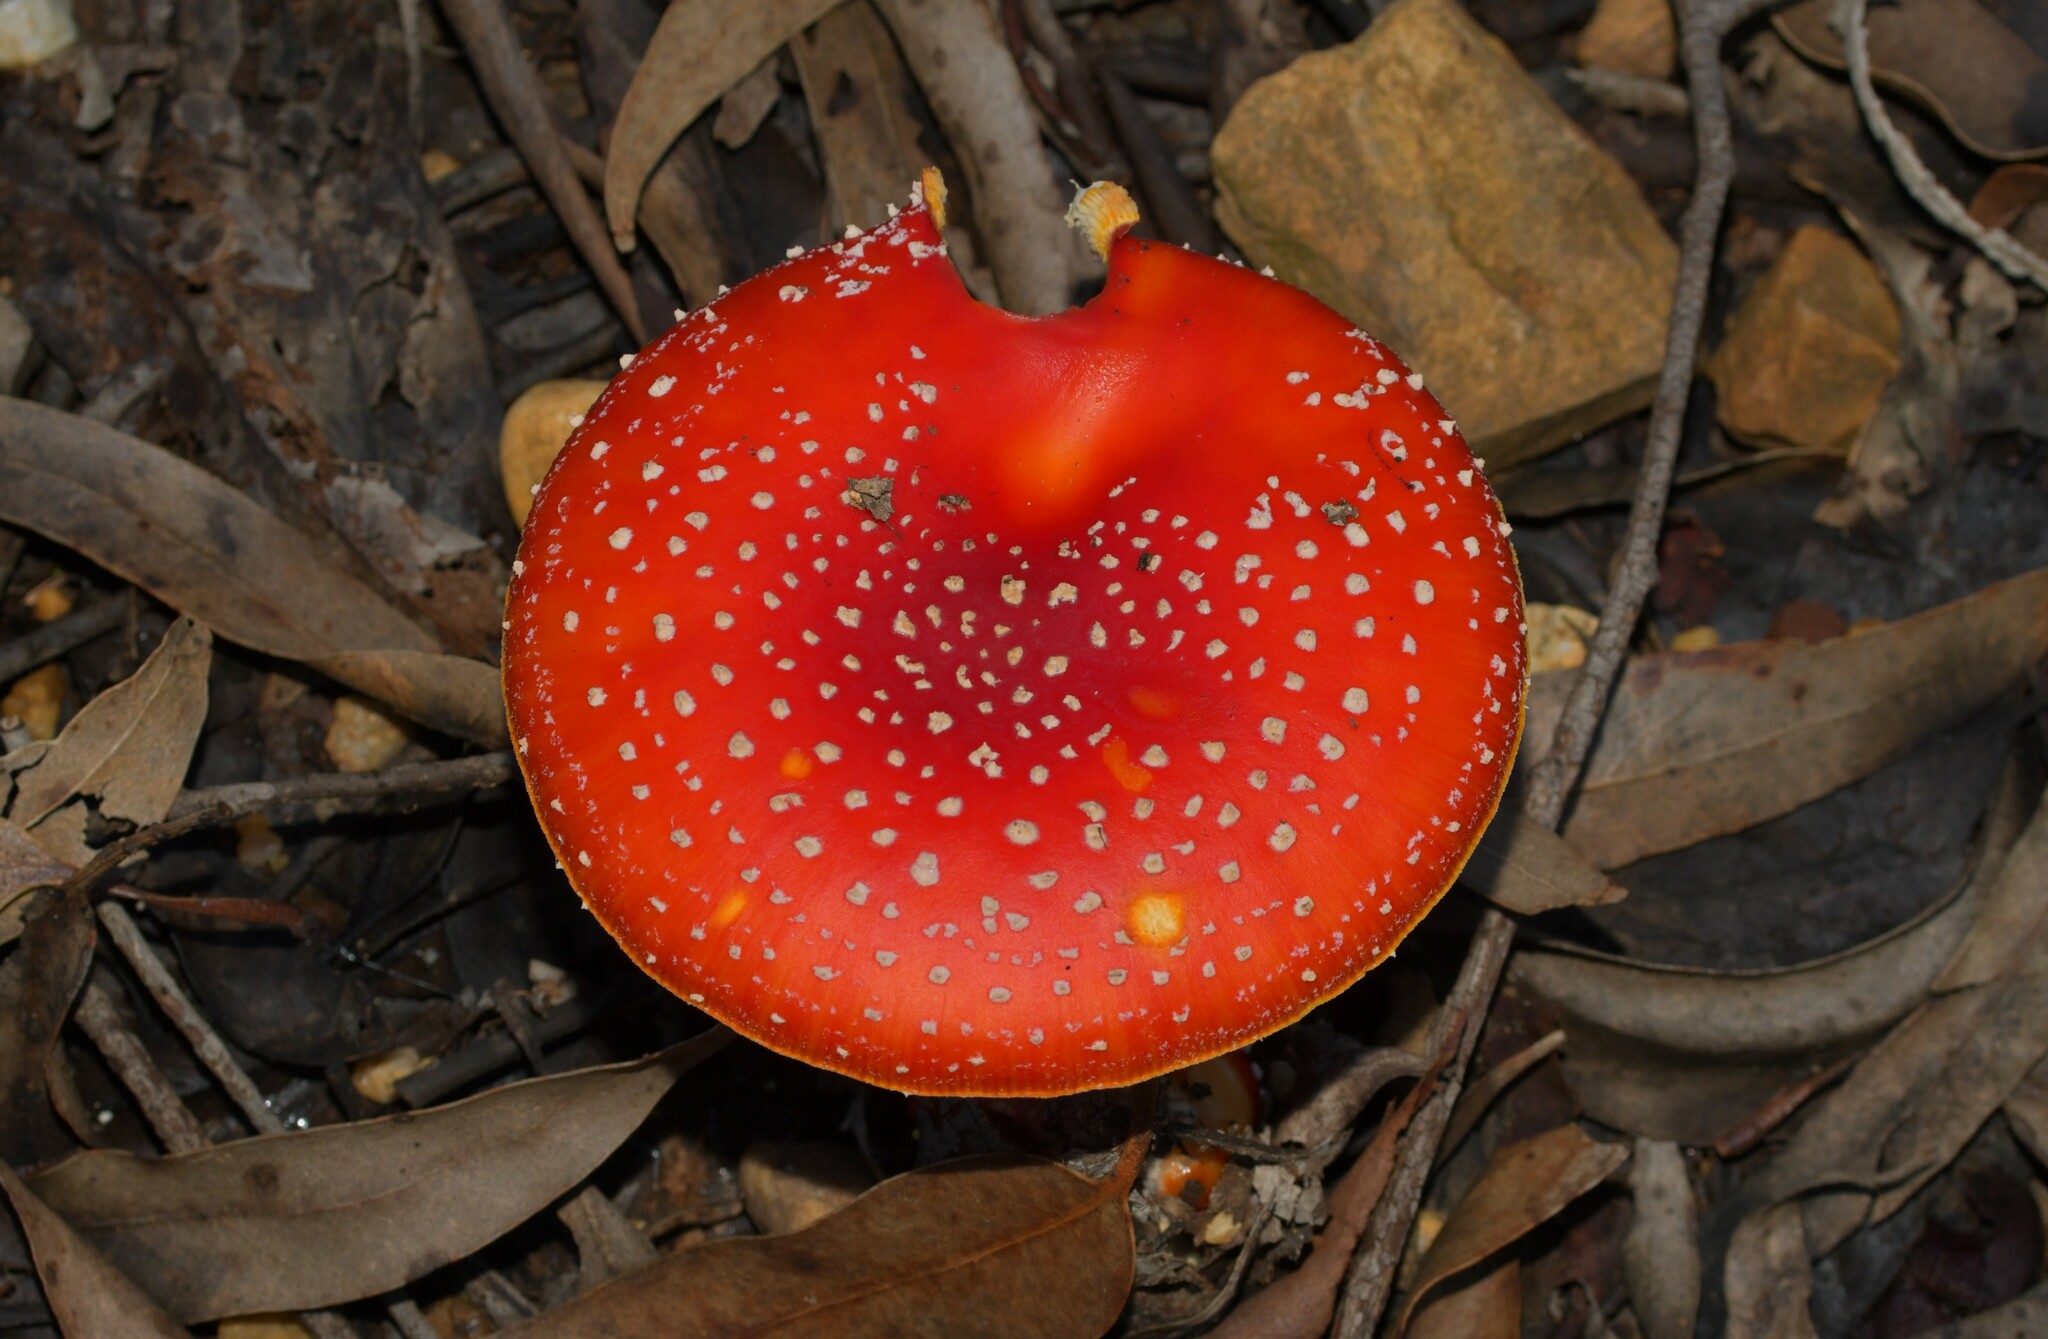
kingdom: Fungi
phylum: Basidiomycota
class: Agaricomycetes
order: Agaricales
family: Amanitaceae
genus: Amanita
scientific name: Amanita muscaria
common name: Fly agaric
